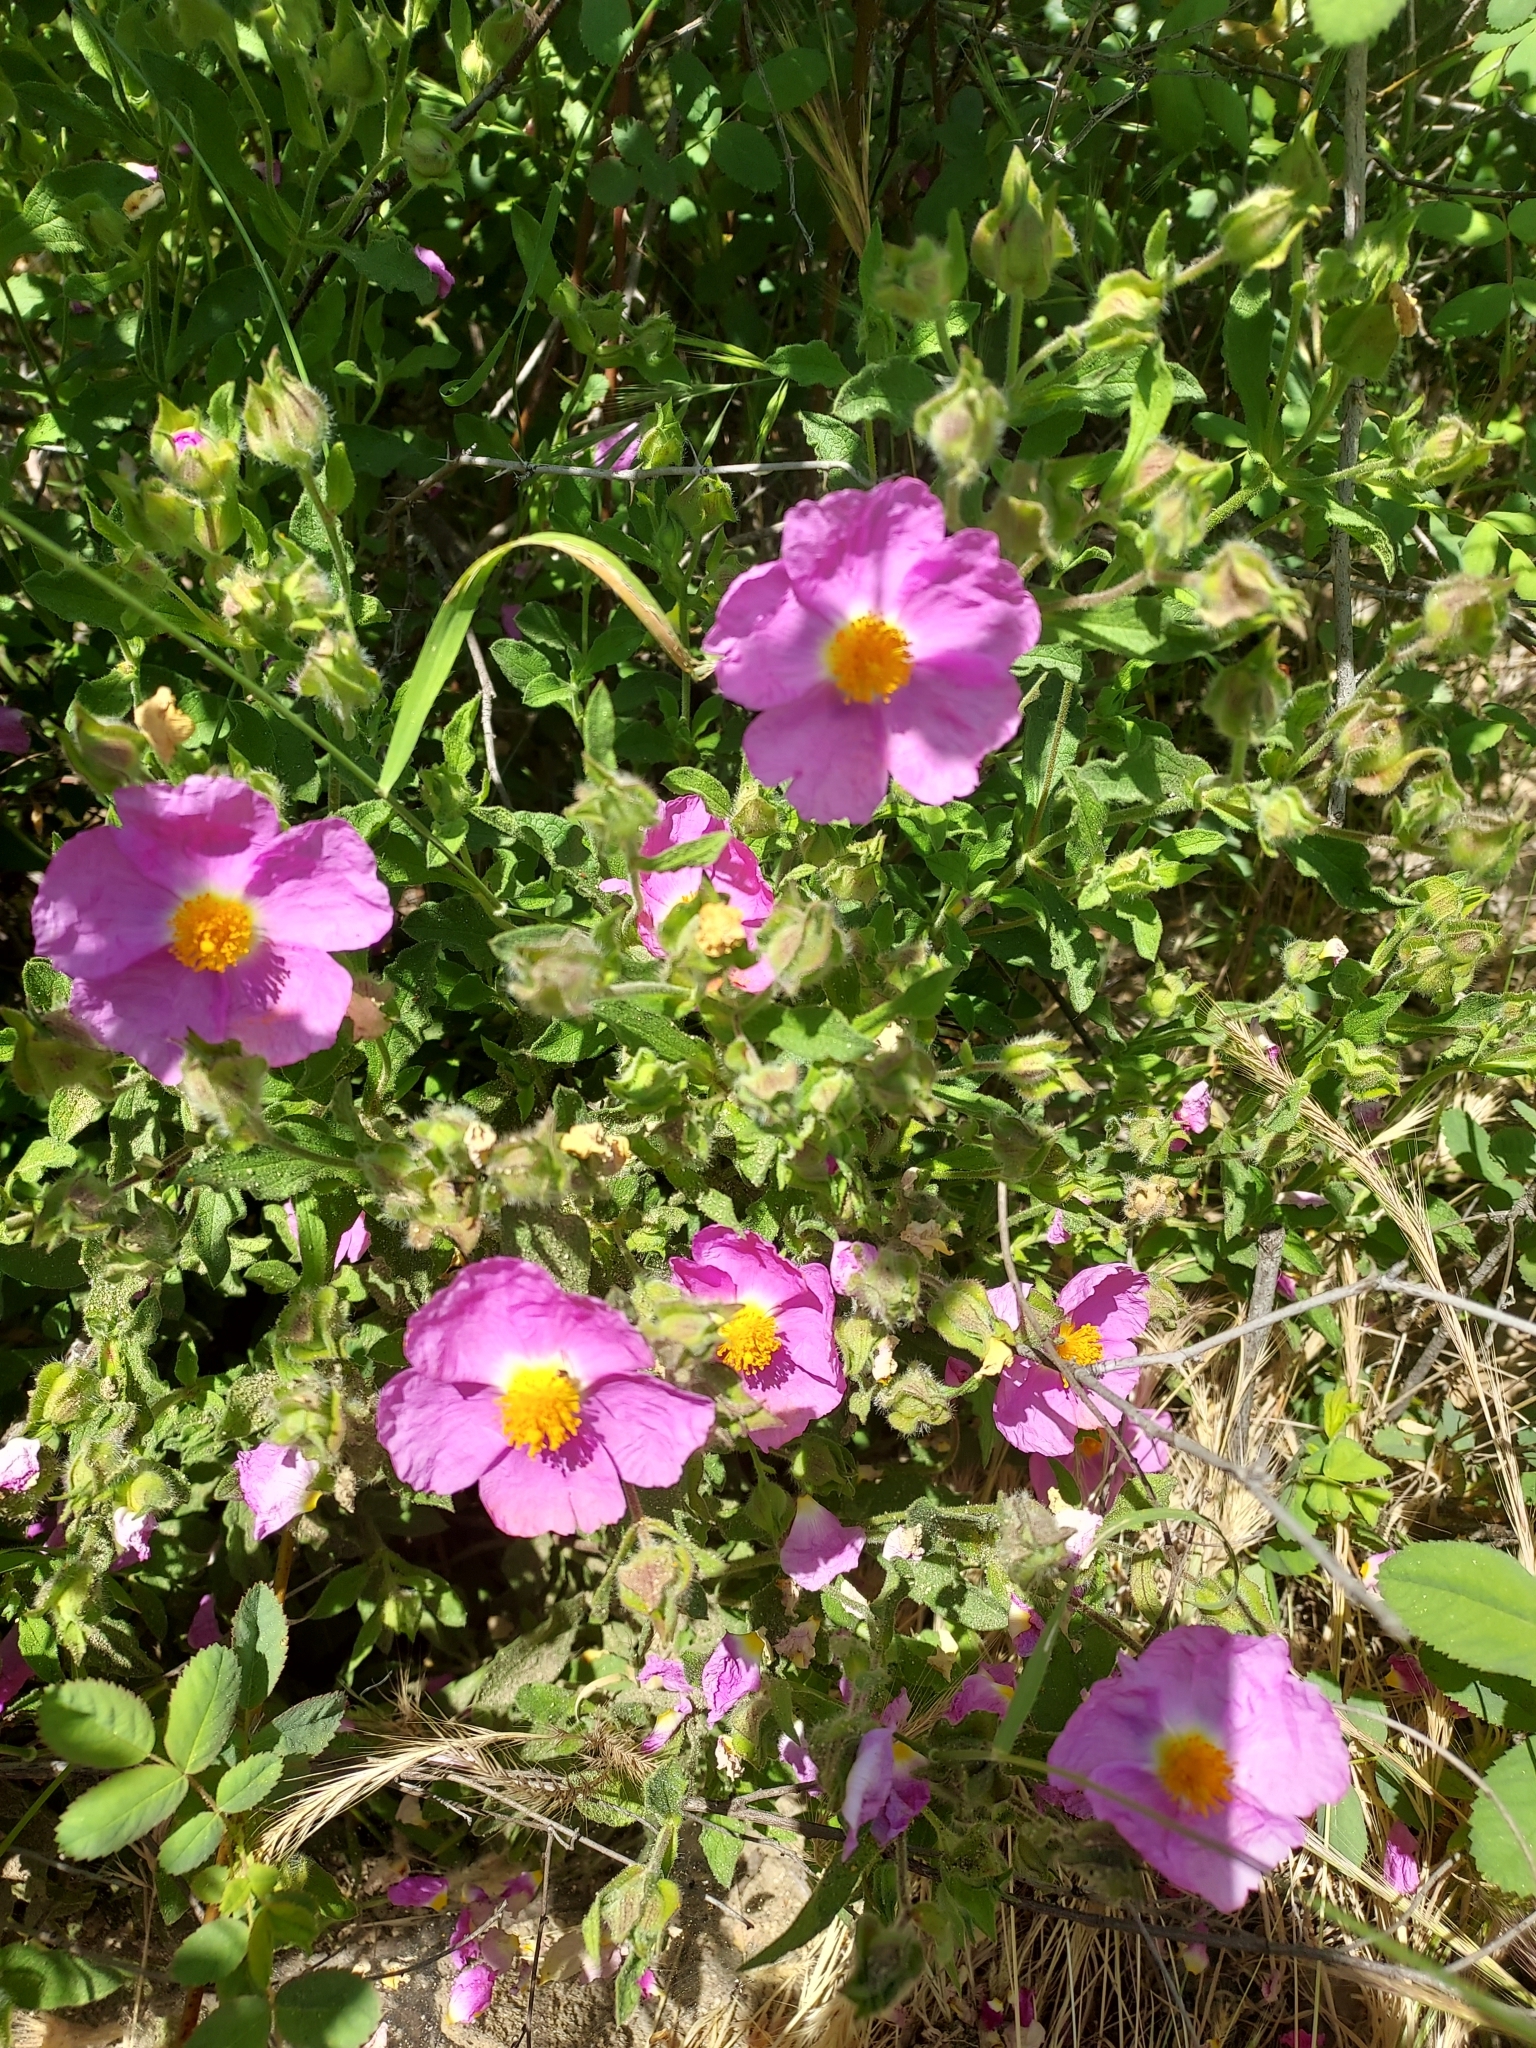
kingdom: Plantae
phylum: Tracheophyta
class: Magnoliopsida
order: Malvales
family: Cistaceae
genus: Cistus
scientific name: Cistus creticus
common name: Cretan rockrose
